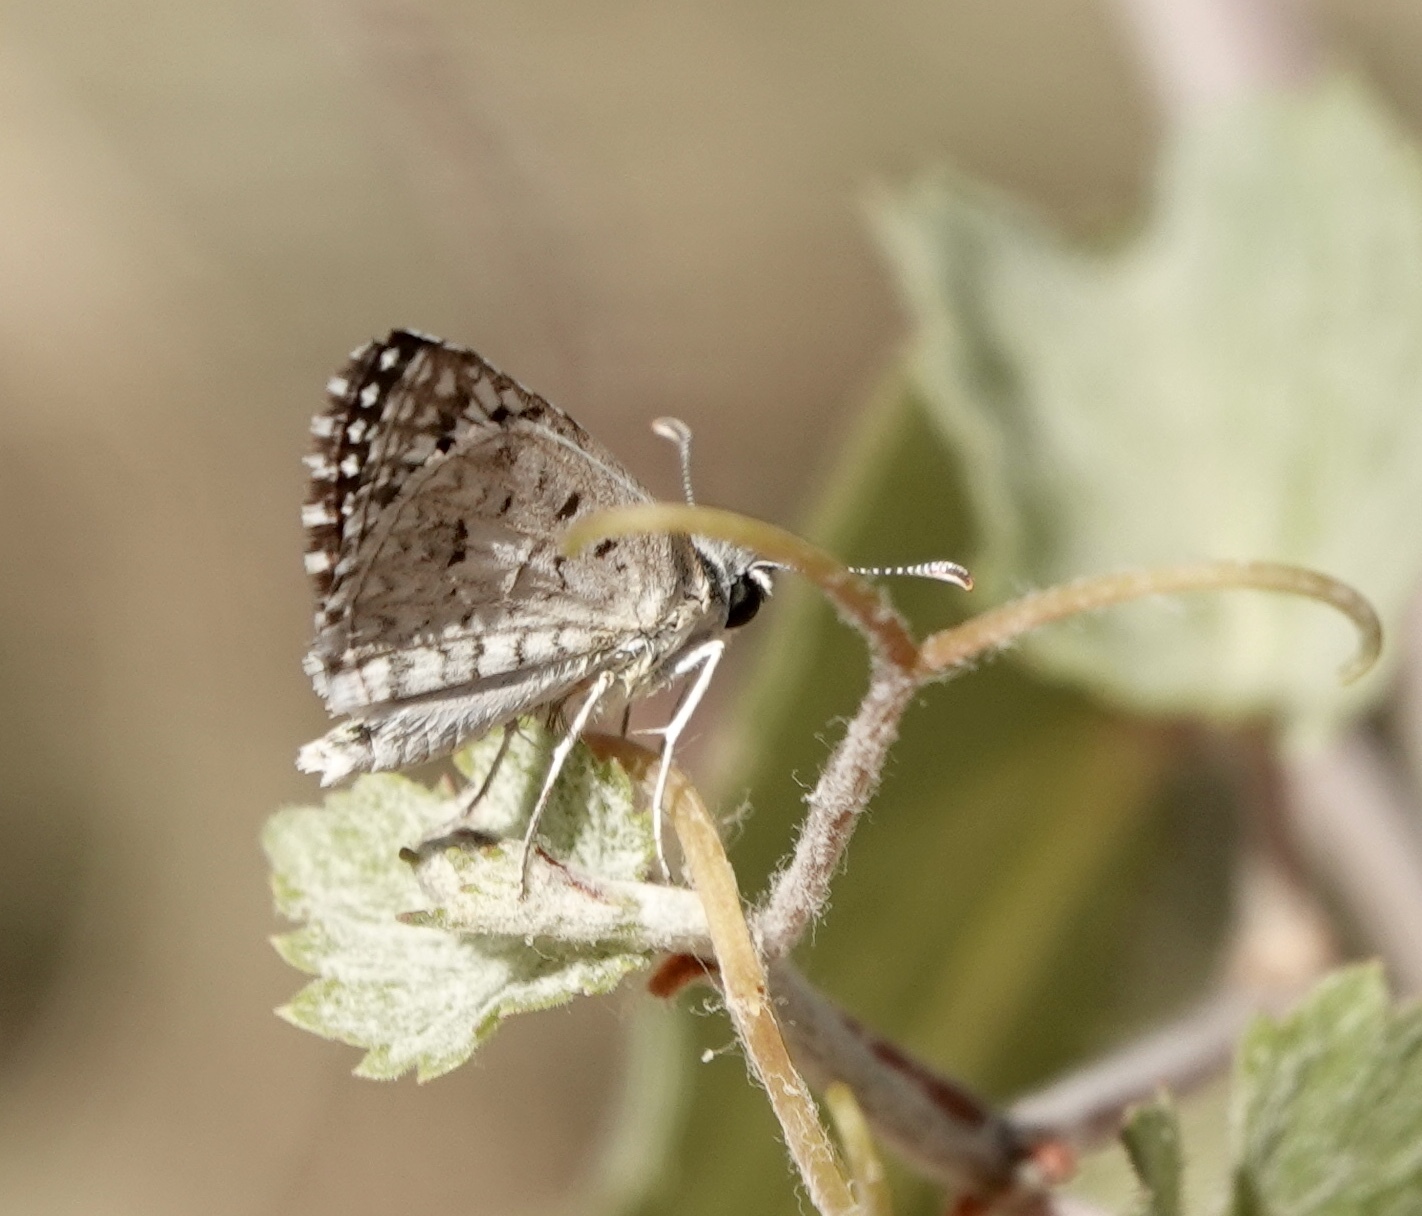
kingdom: Animalia
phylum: Arthropoda
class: Insecta
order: Lepidoptera
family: Hesperiidae
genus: Burnsius
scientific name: Burnsius philetas
